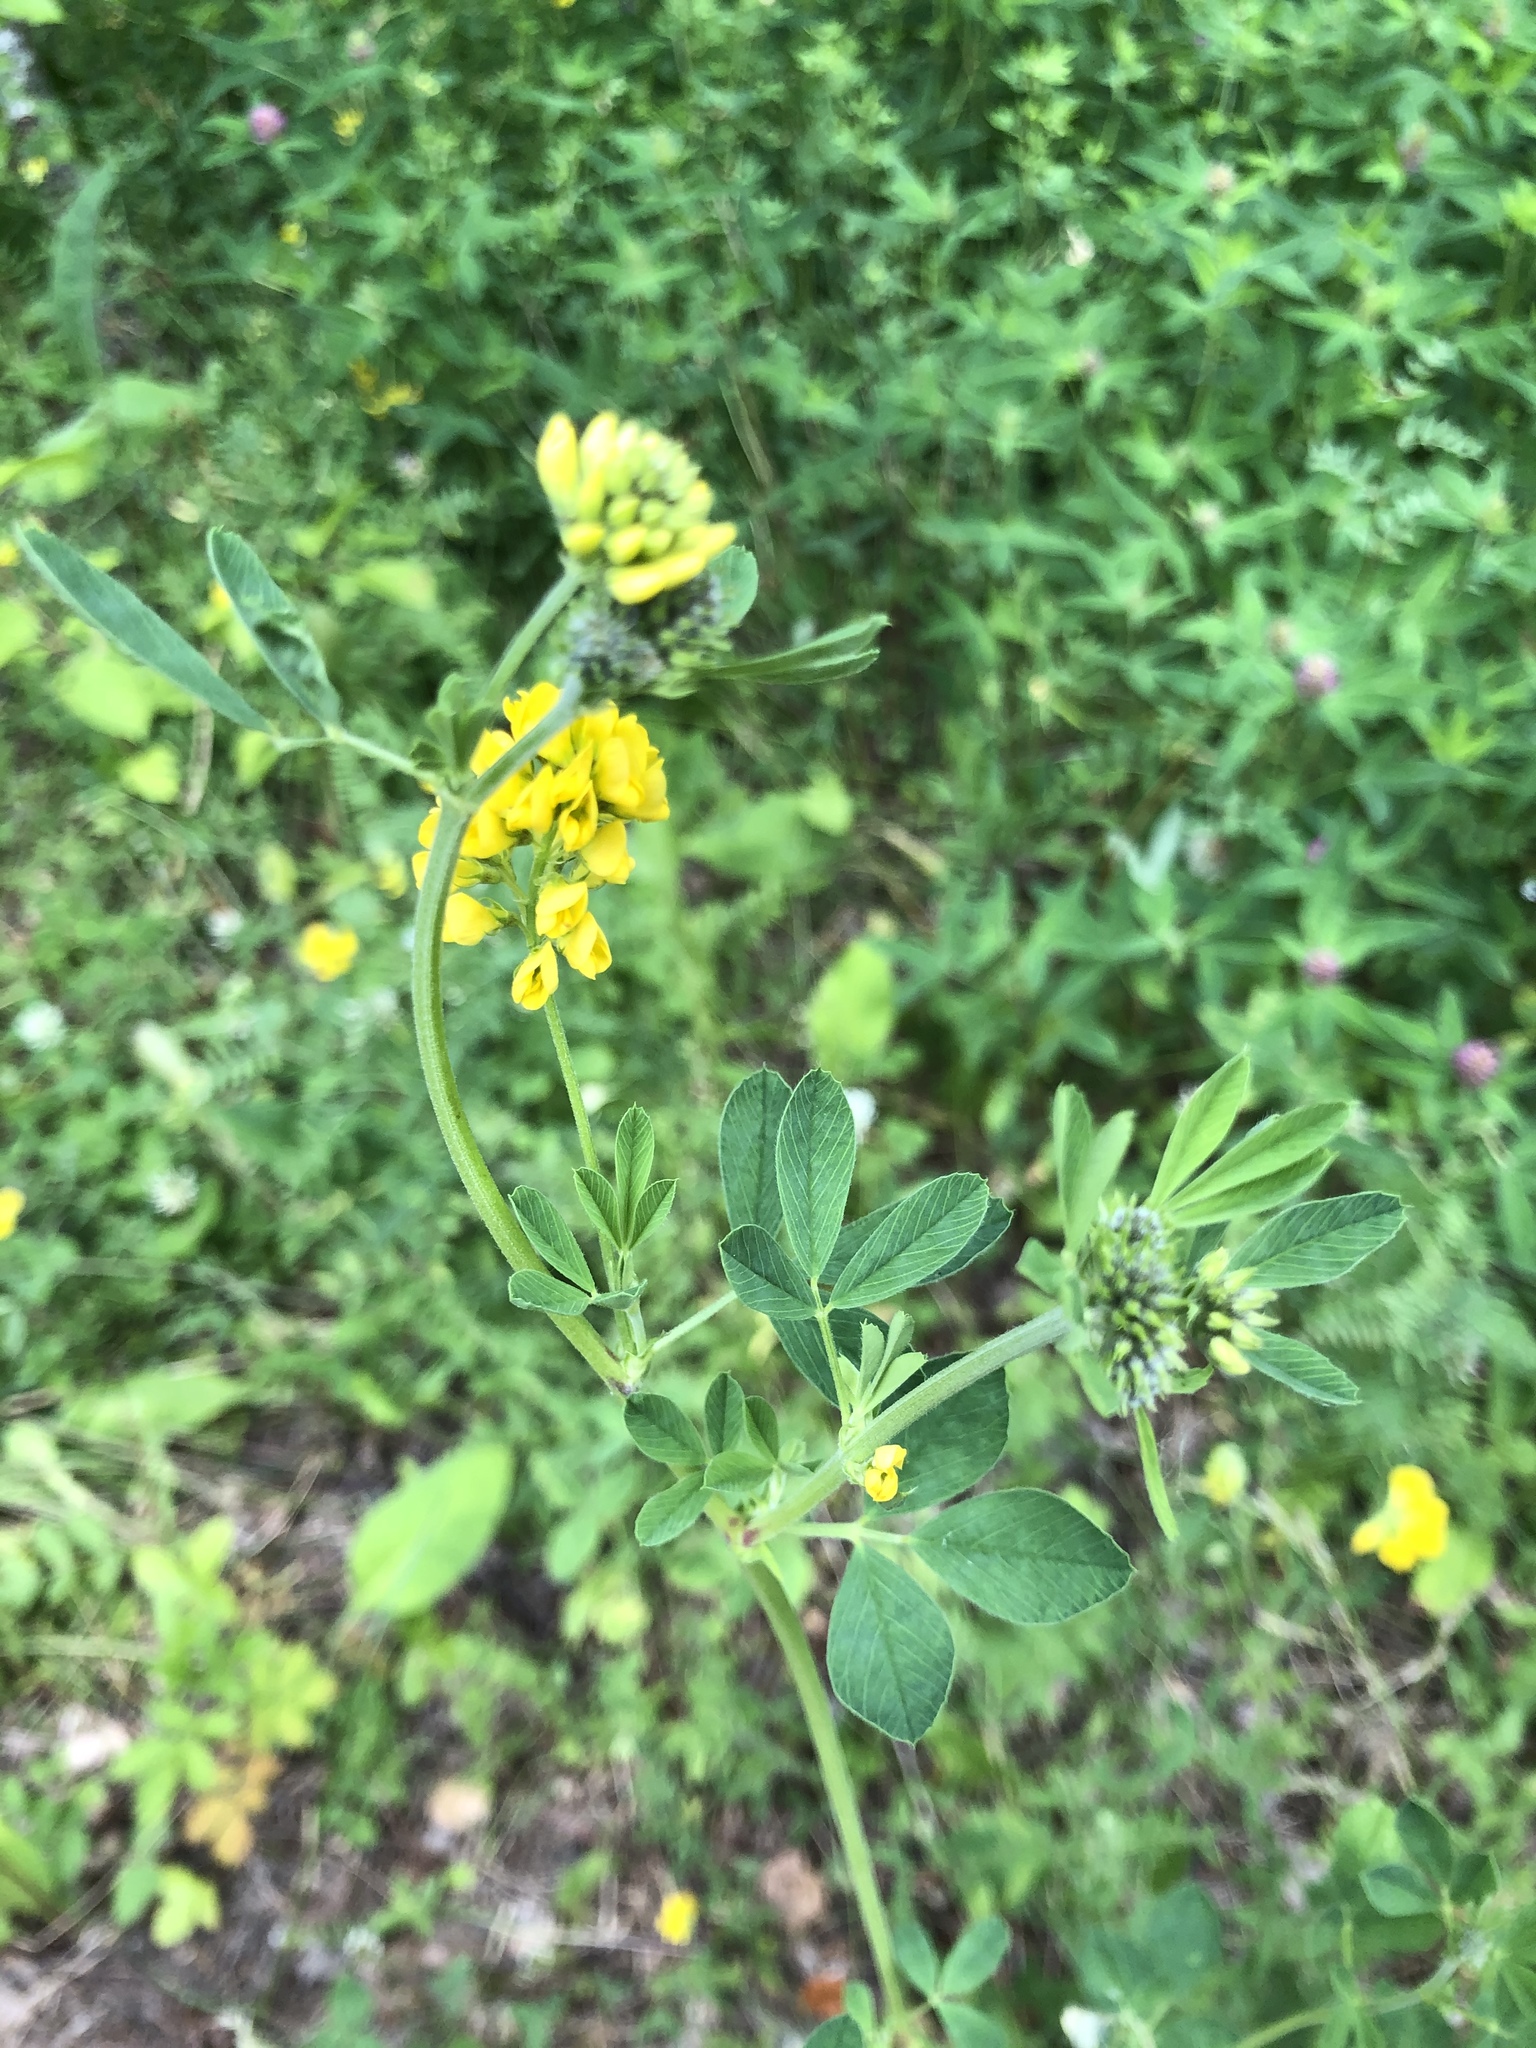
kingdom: Plantae
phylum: Tracheophyta
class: Magnoliopsida
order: Fabales
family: Fabaceae
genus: Medicago
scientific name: Medicago falcata
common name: Sickle medick
